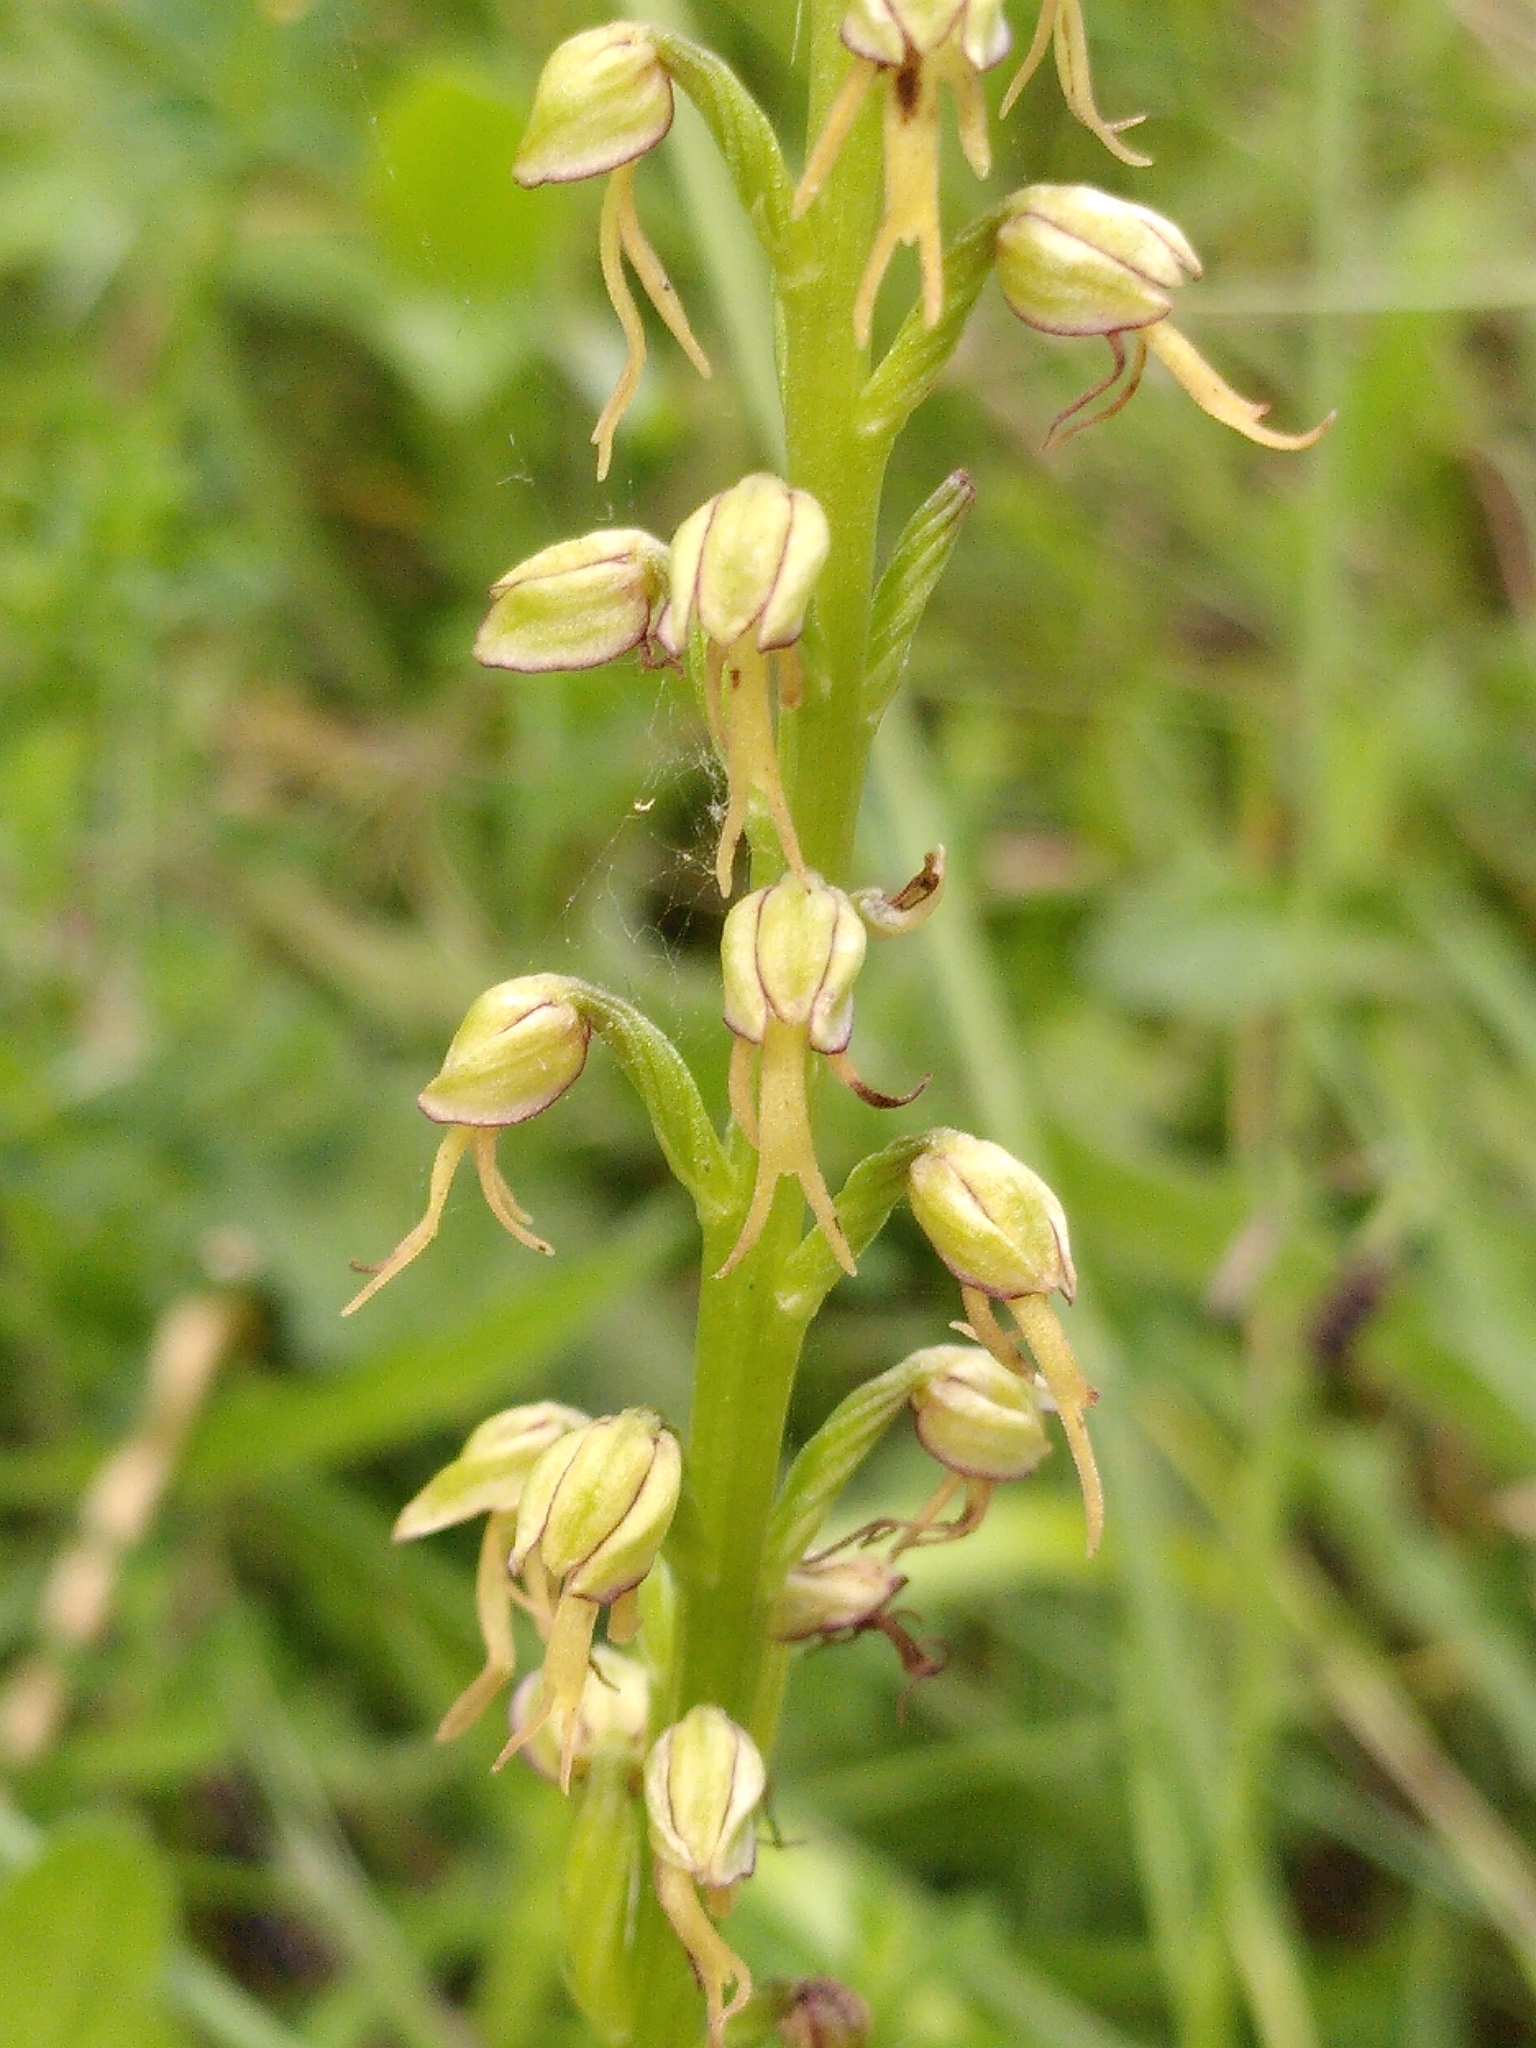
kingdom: Plantae
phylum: Tracheophyta
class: Liliopsida
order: Asparagales
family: Orchidaceae
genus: Orchis
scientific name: Orchis anthropophora
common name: Man orchid
